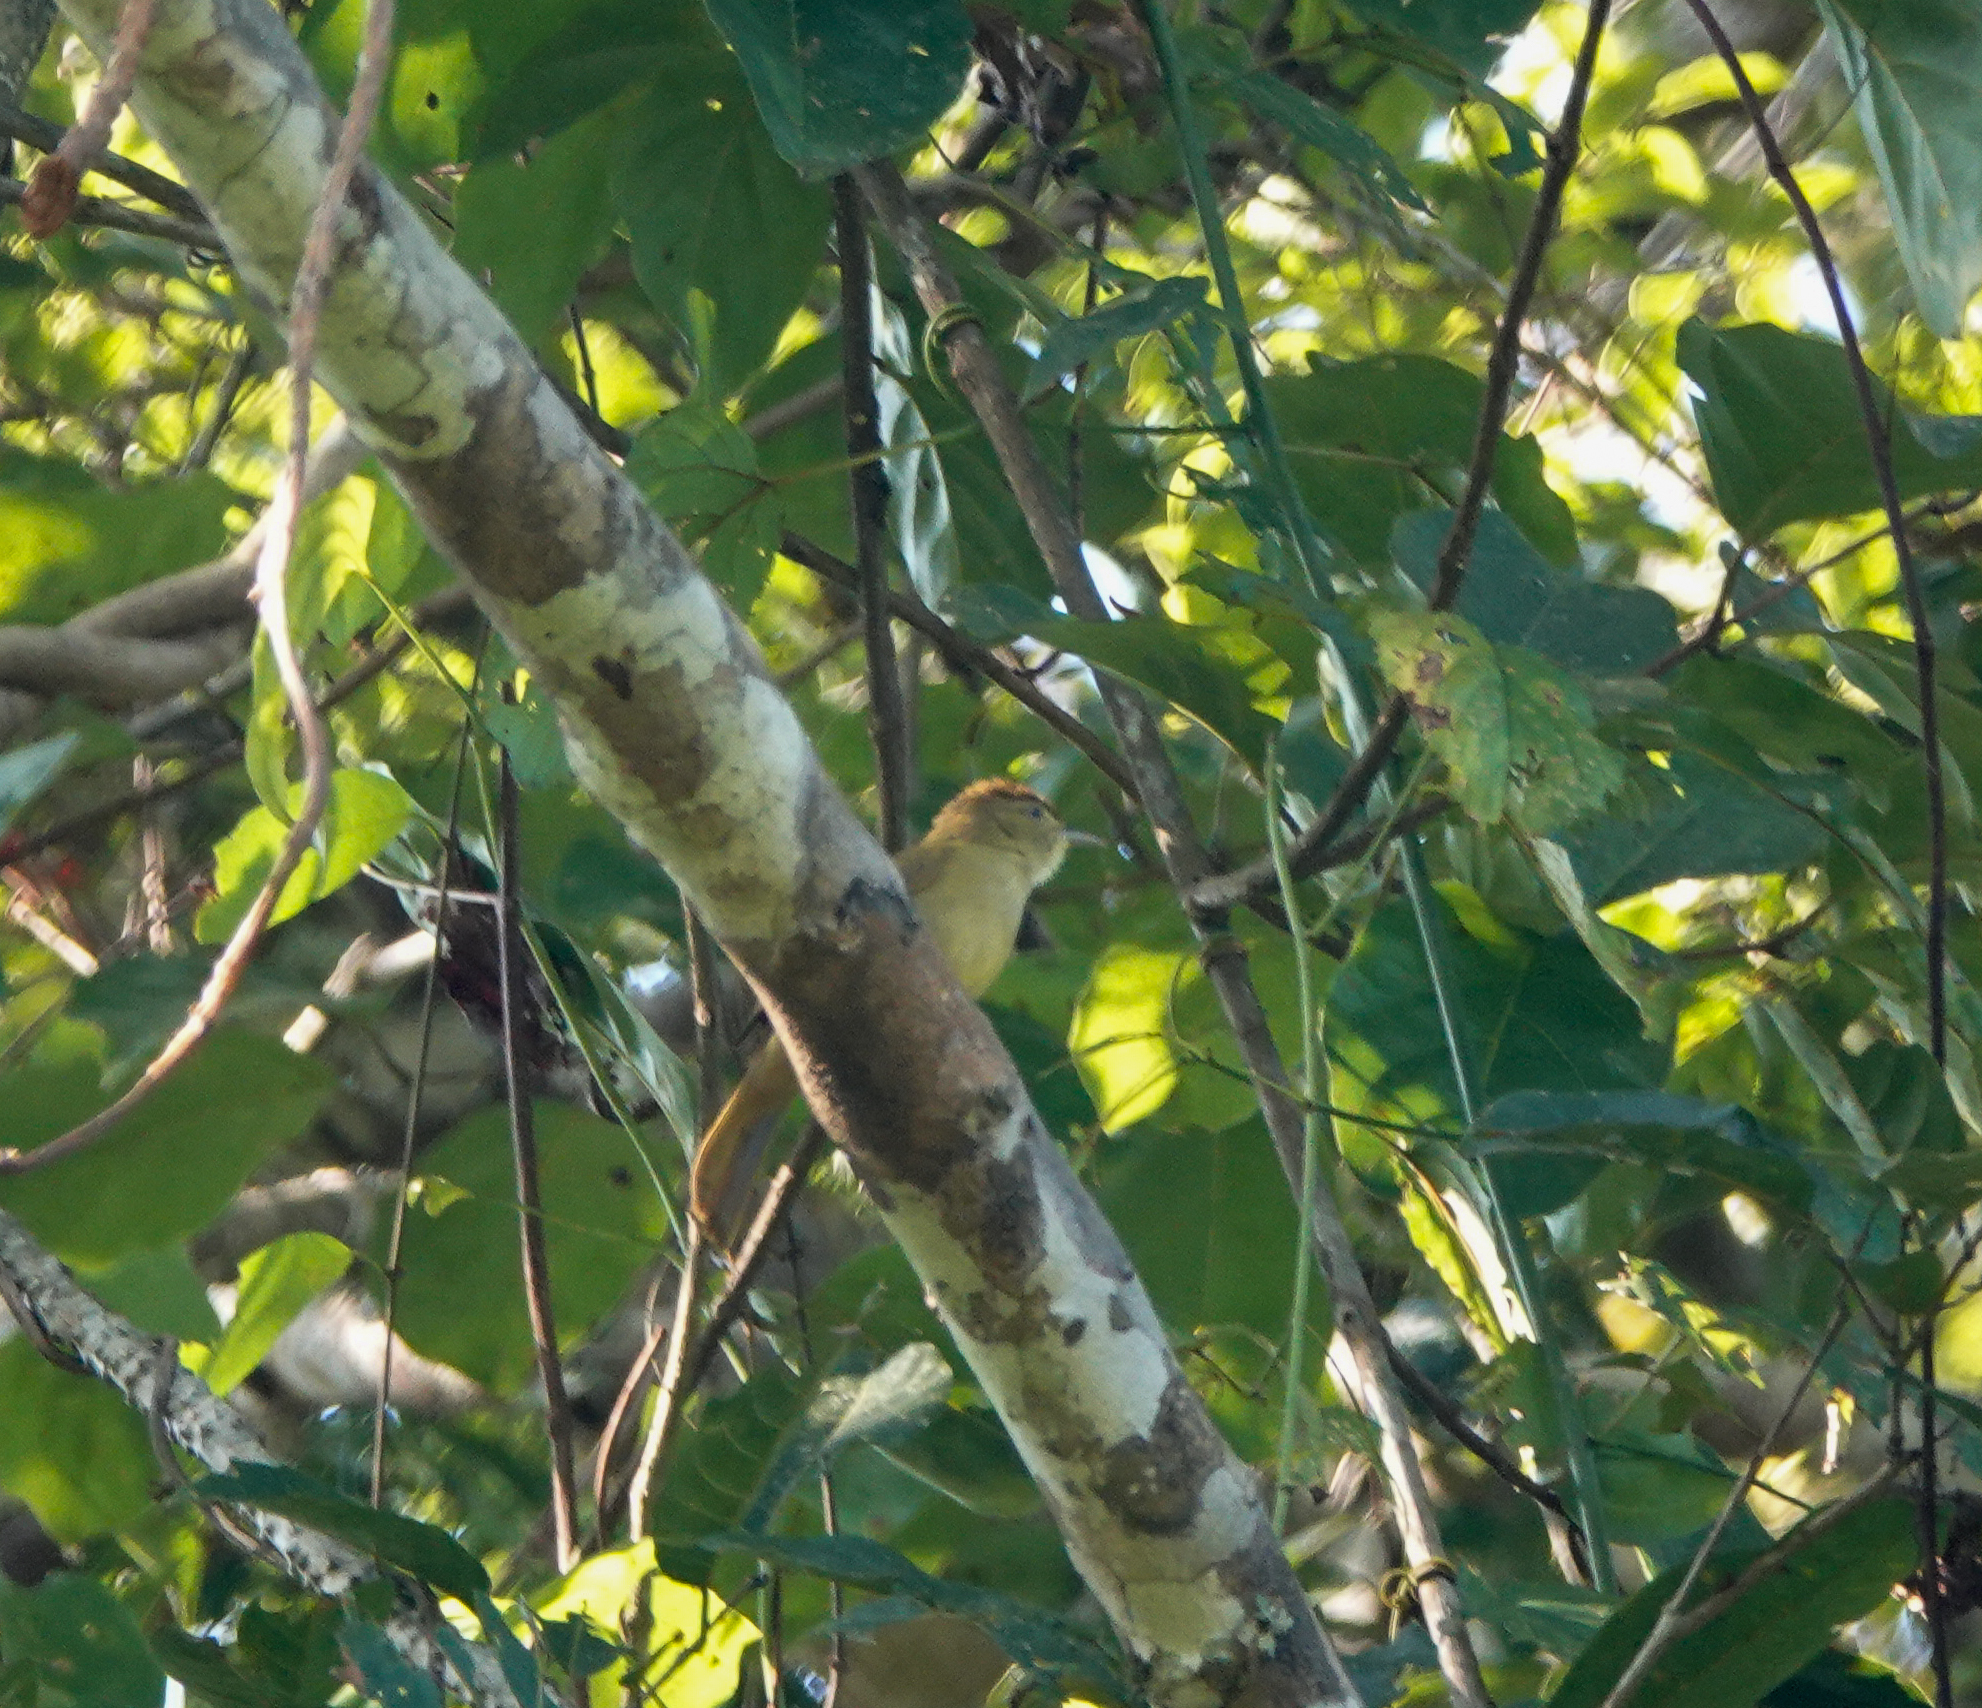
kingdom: Animalia
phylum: Chordata
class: Aves
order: Passeriformes
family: Pycnonotidae
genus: Iole
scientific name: Iole virescens
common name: Olive bulbul
